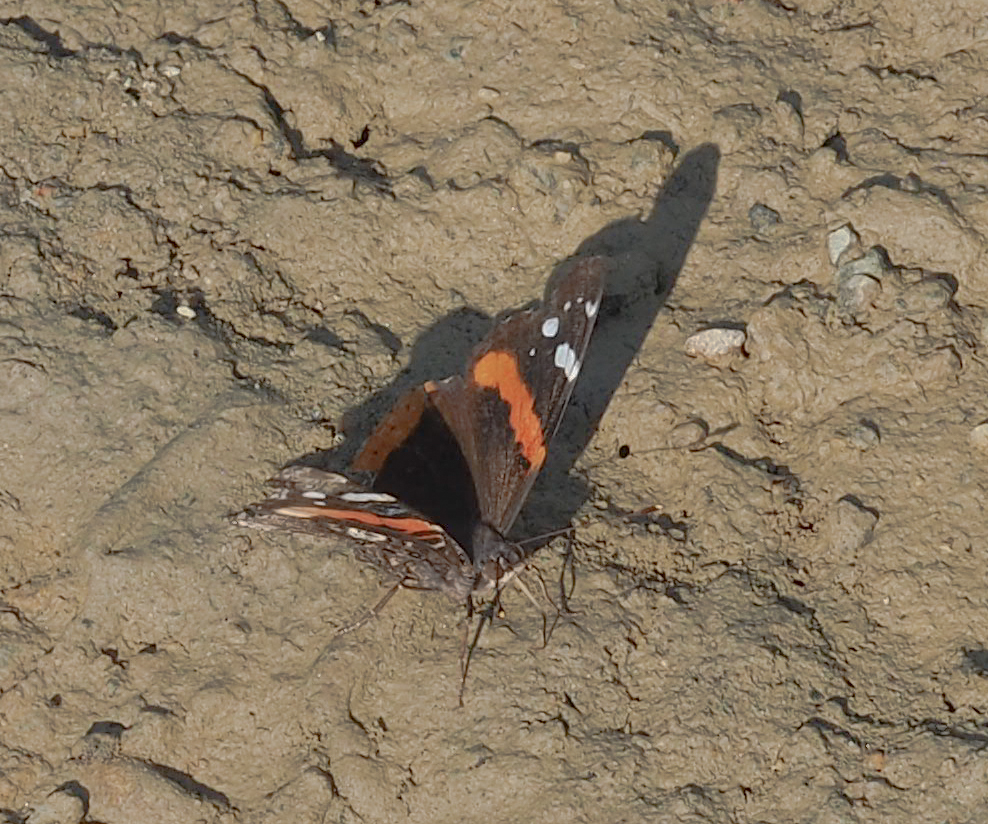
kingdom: Animalia
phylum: Arthropoda
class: Insecta
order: Lepidoptera
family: Nymphalidae
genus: Vanessa
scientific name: Vanessa atalanta
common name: Red admiral
